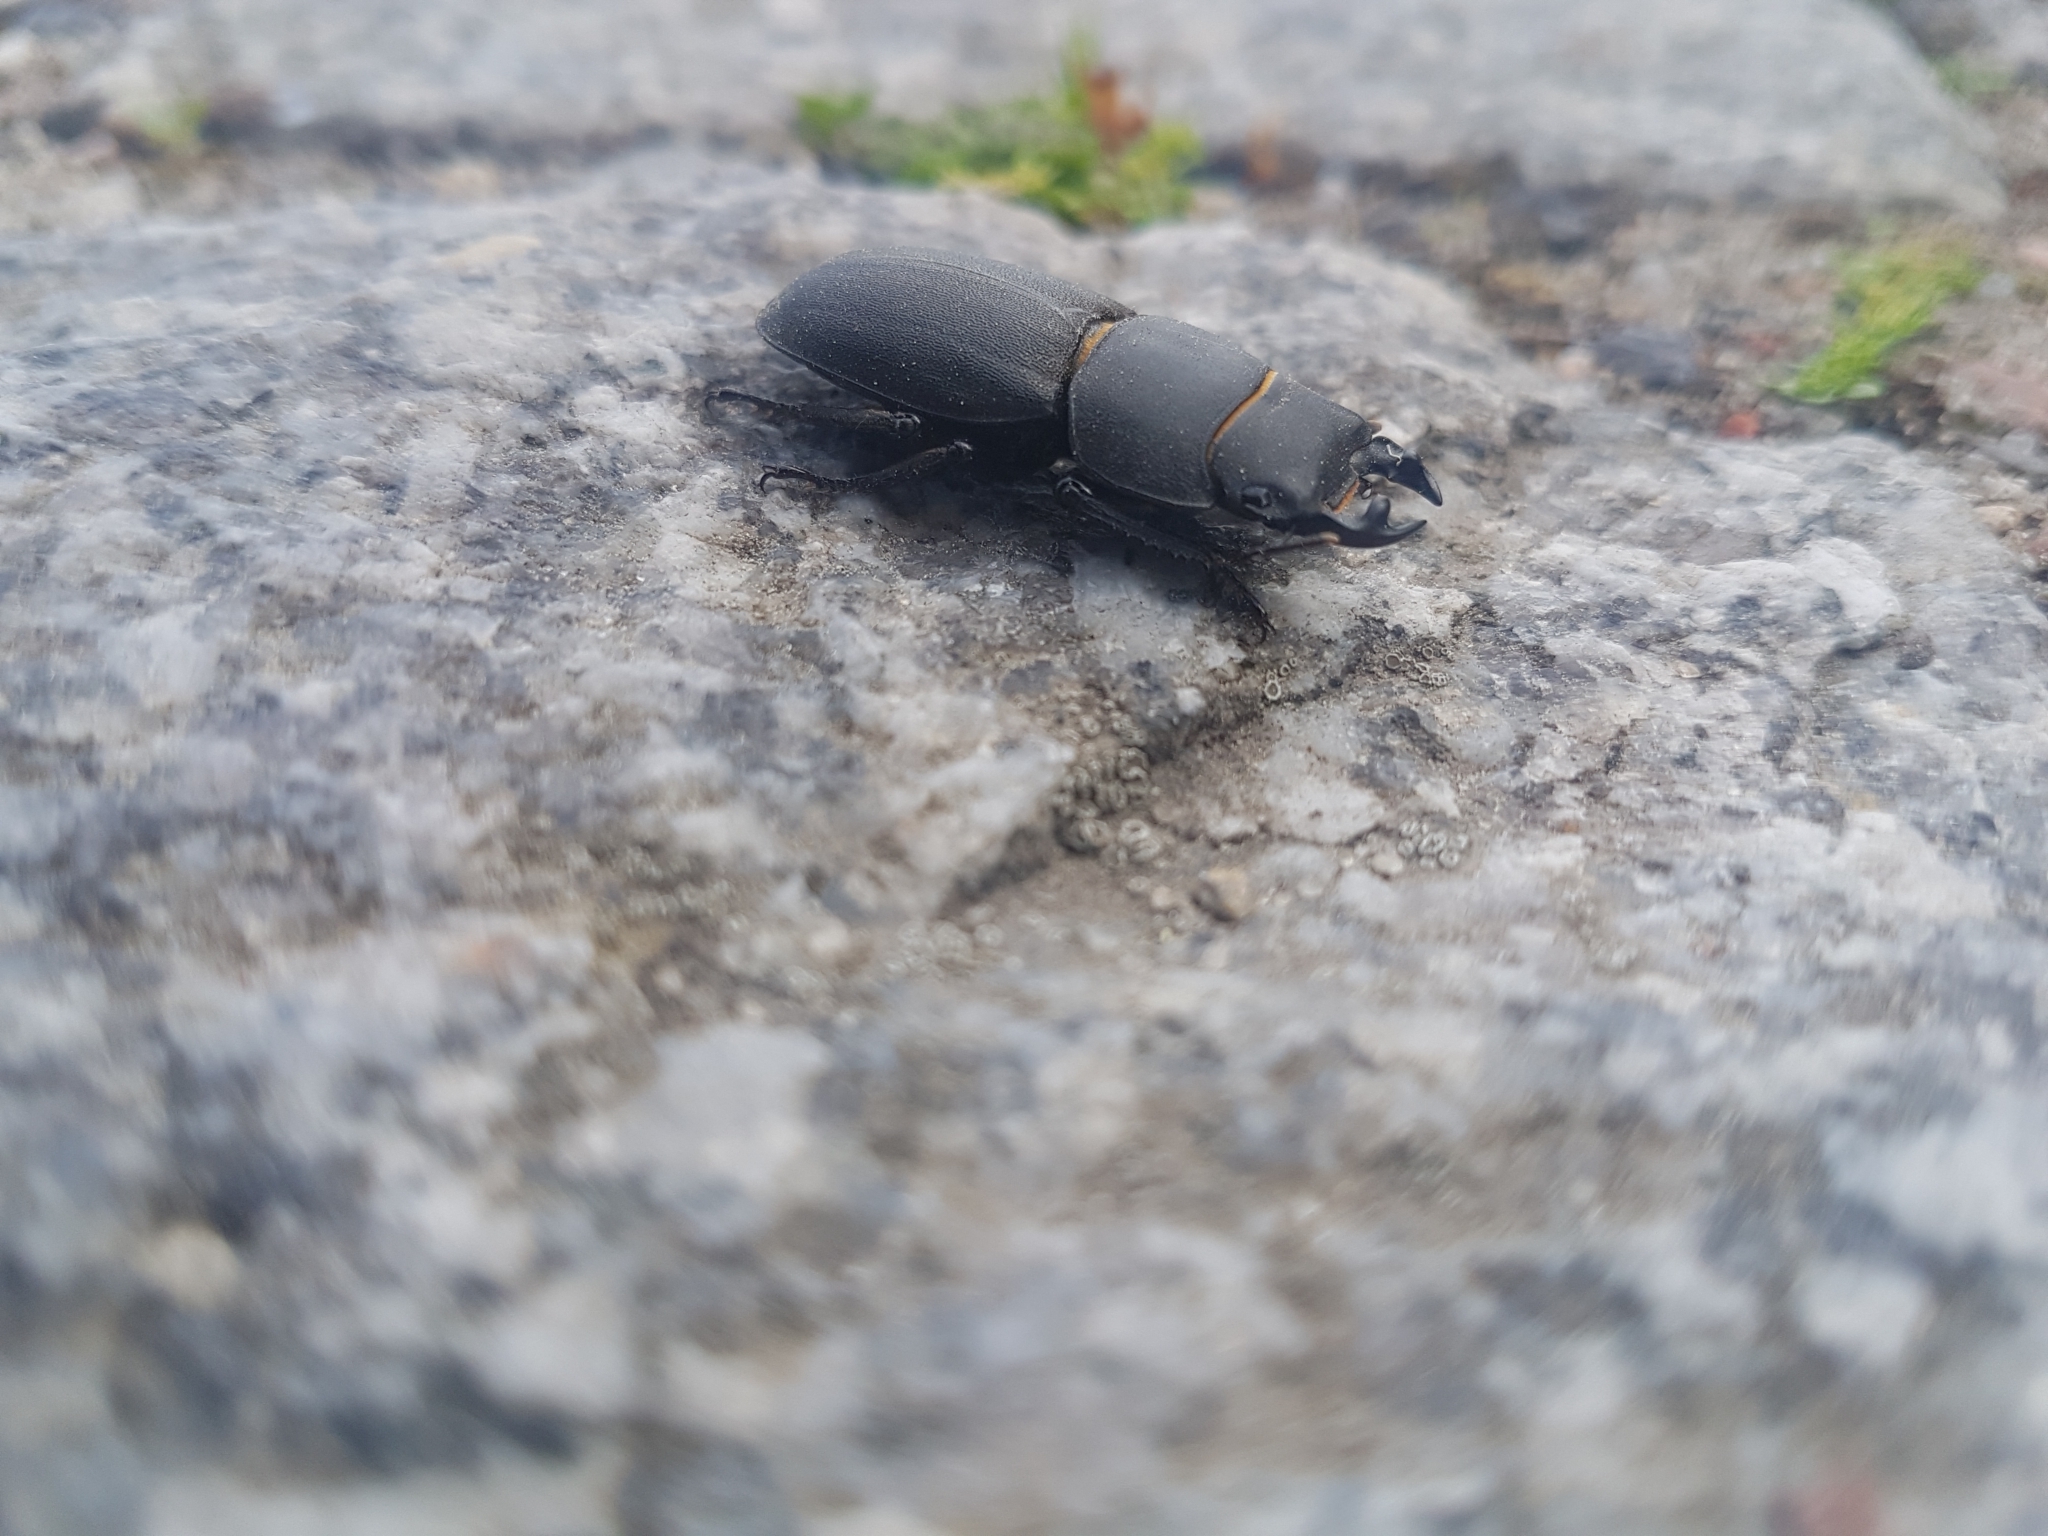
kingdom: Animalia
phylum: Arthropoda
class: Insecta
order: Coleoptera
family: Lucanidae
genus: Dorcus
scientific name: Dorcus parallelipipedus
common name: Lesser stag beetle
